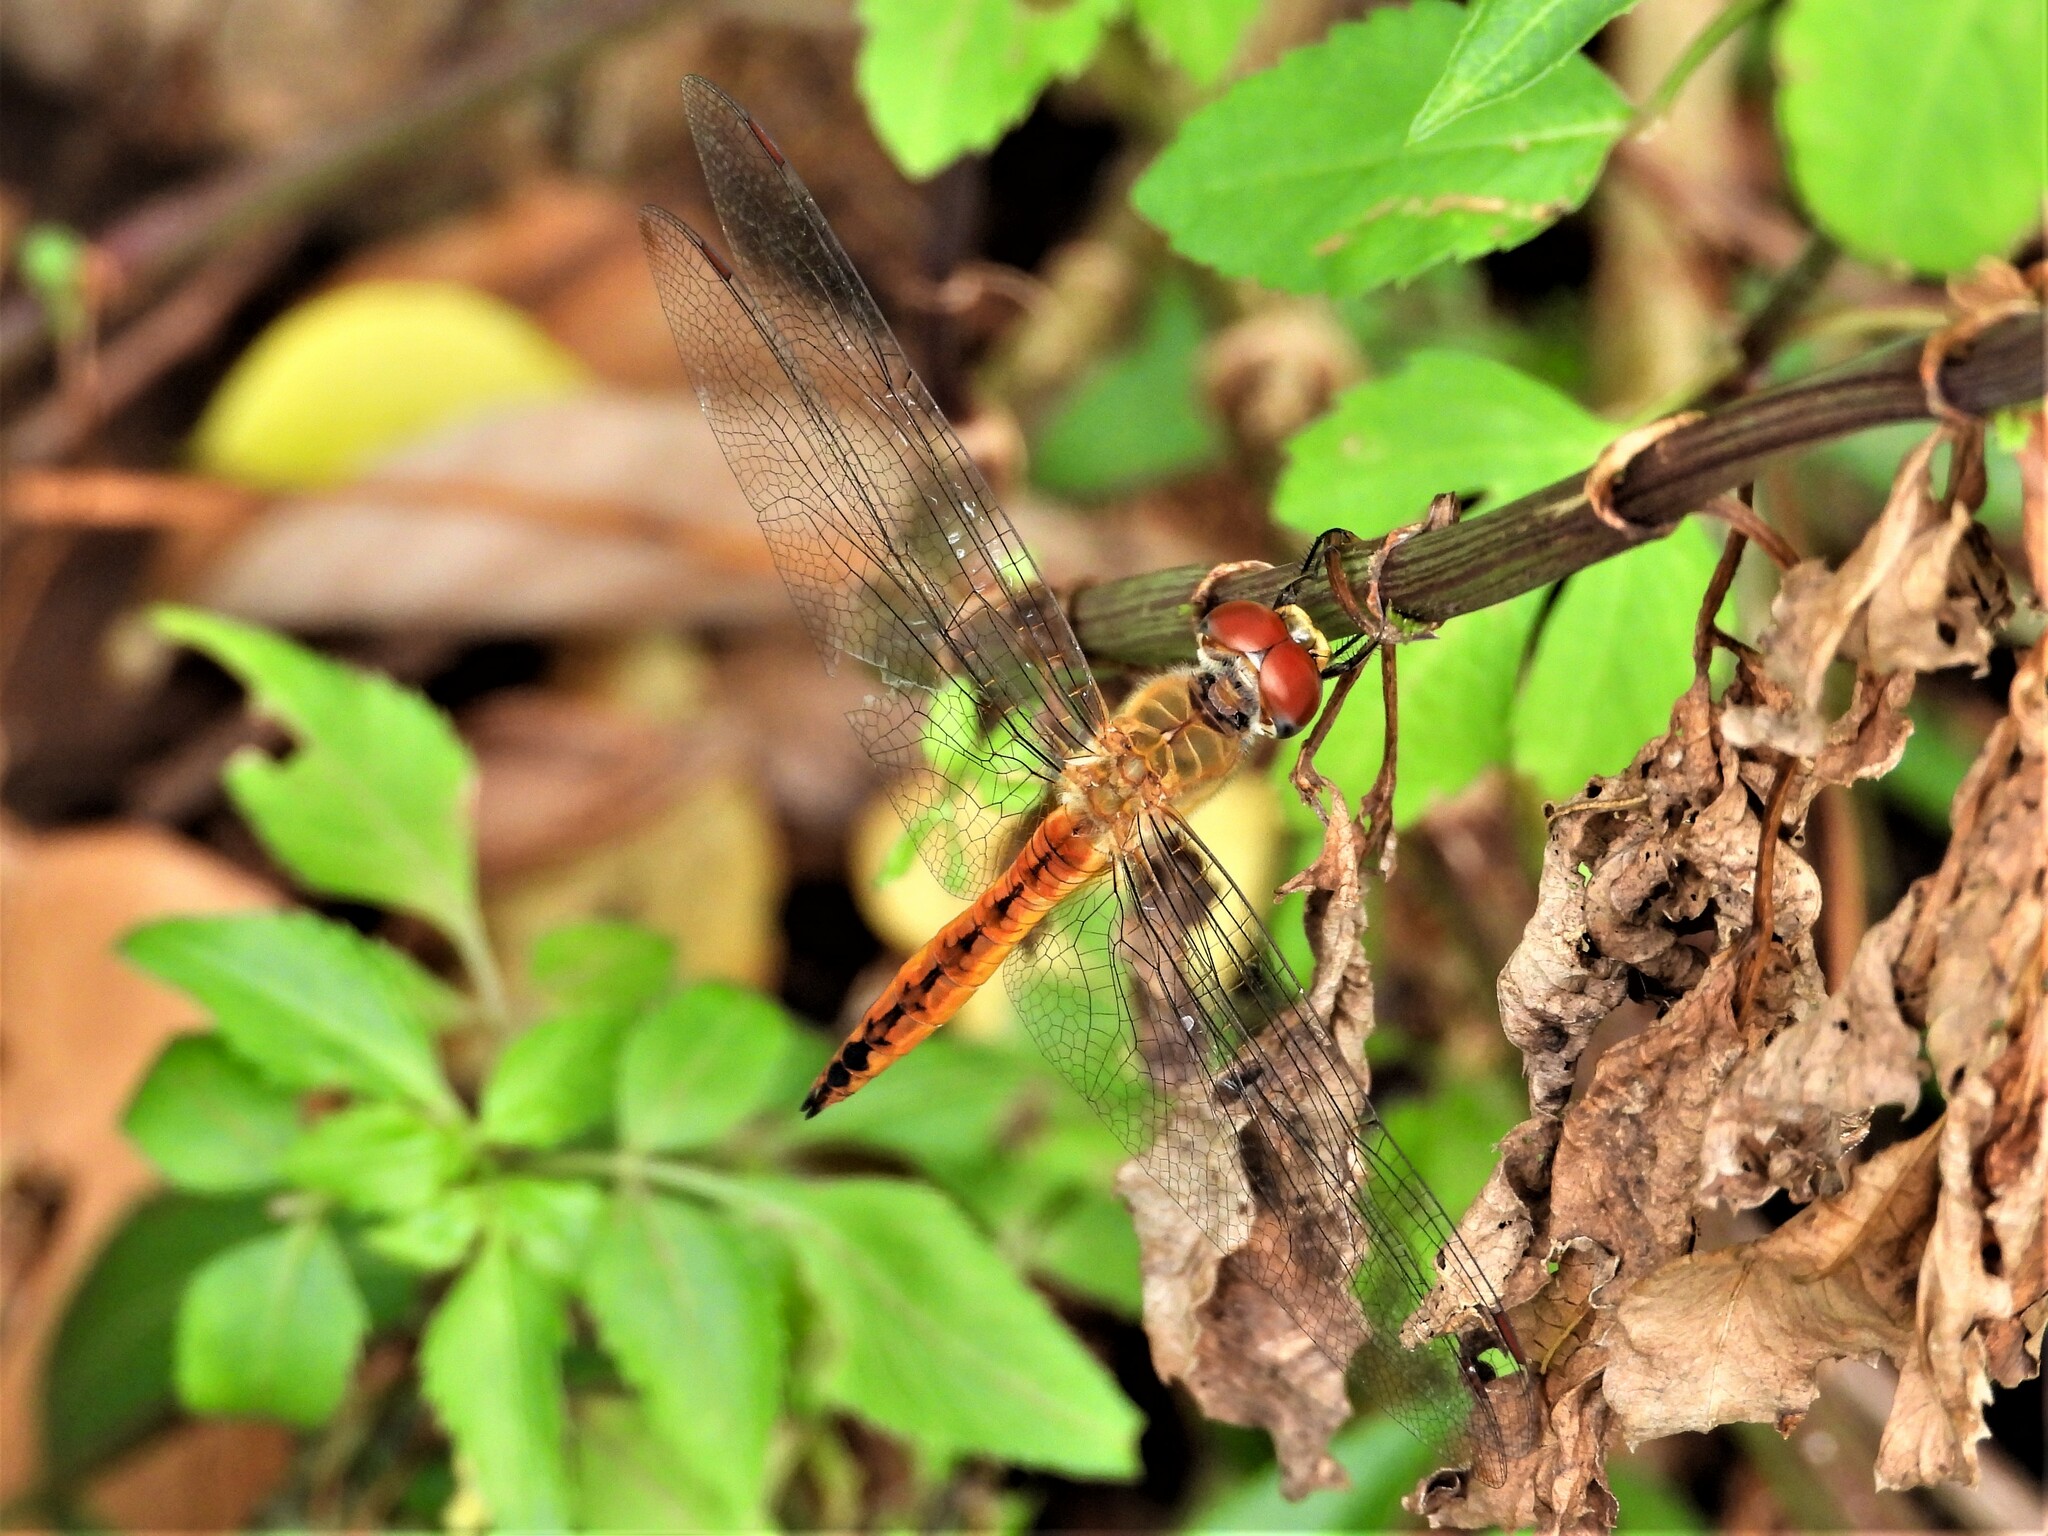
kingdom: Animalia
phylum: Arthropoda
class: Insecta
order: Odonata
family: Libellulidae
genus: Pantala
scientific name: Pantala flavescens
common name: Wandering glider
